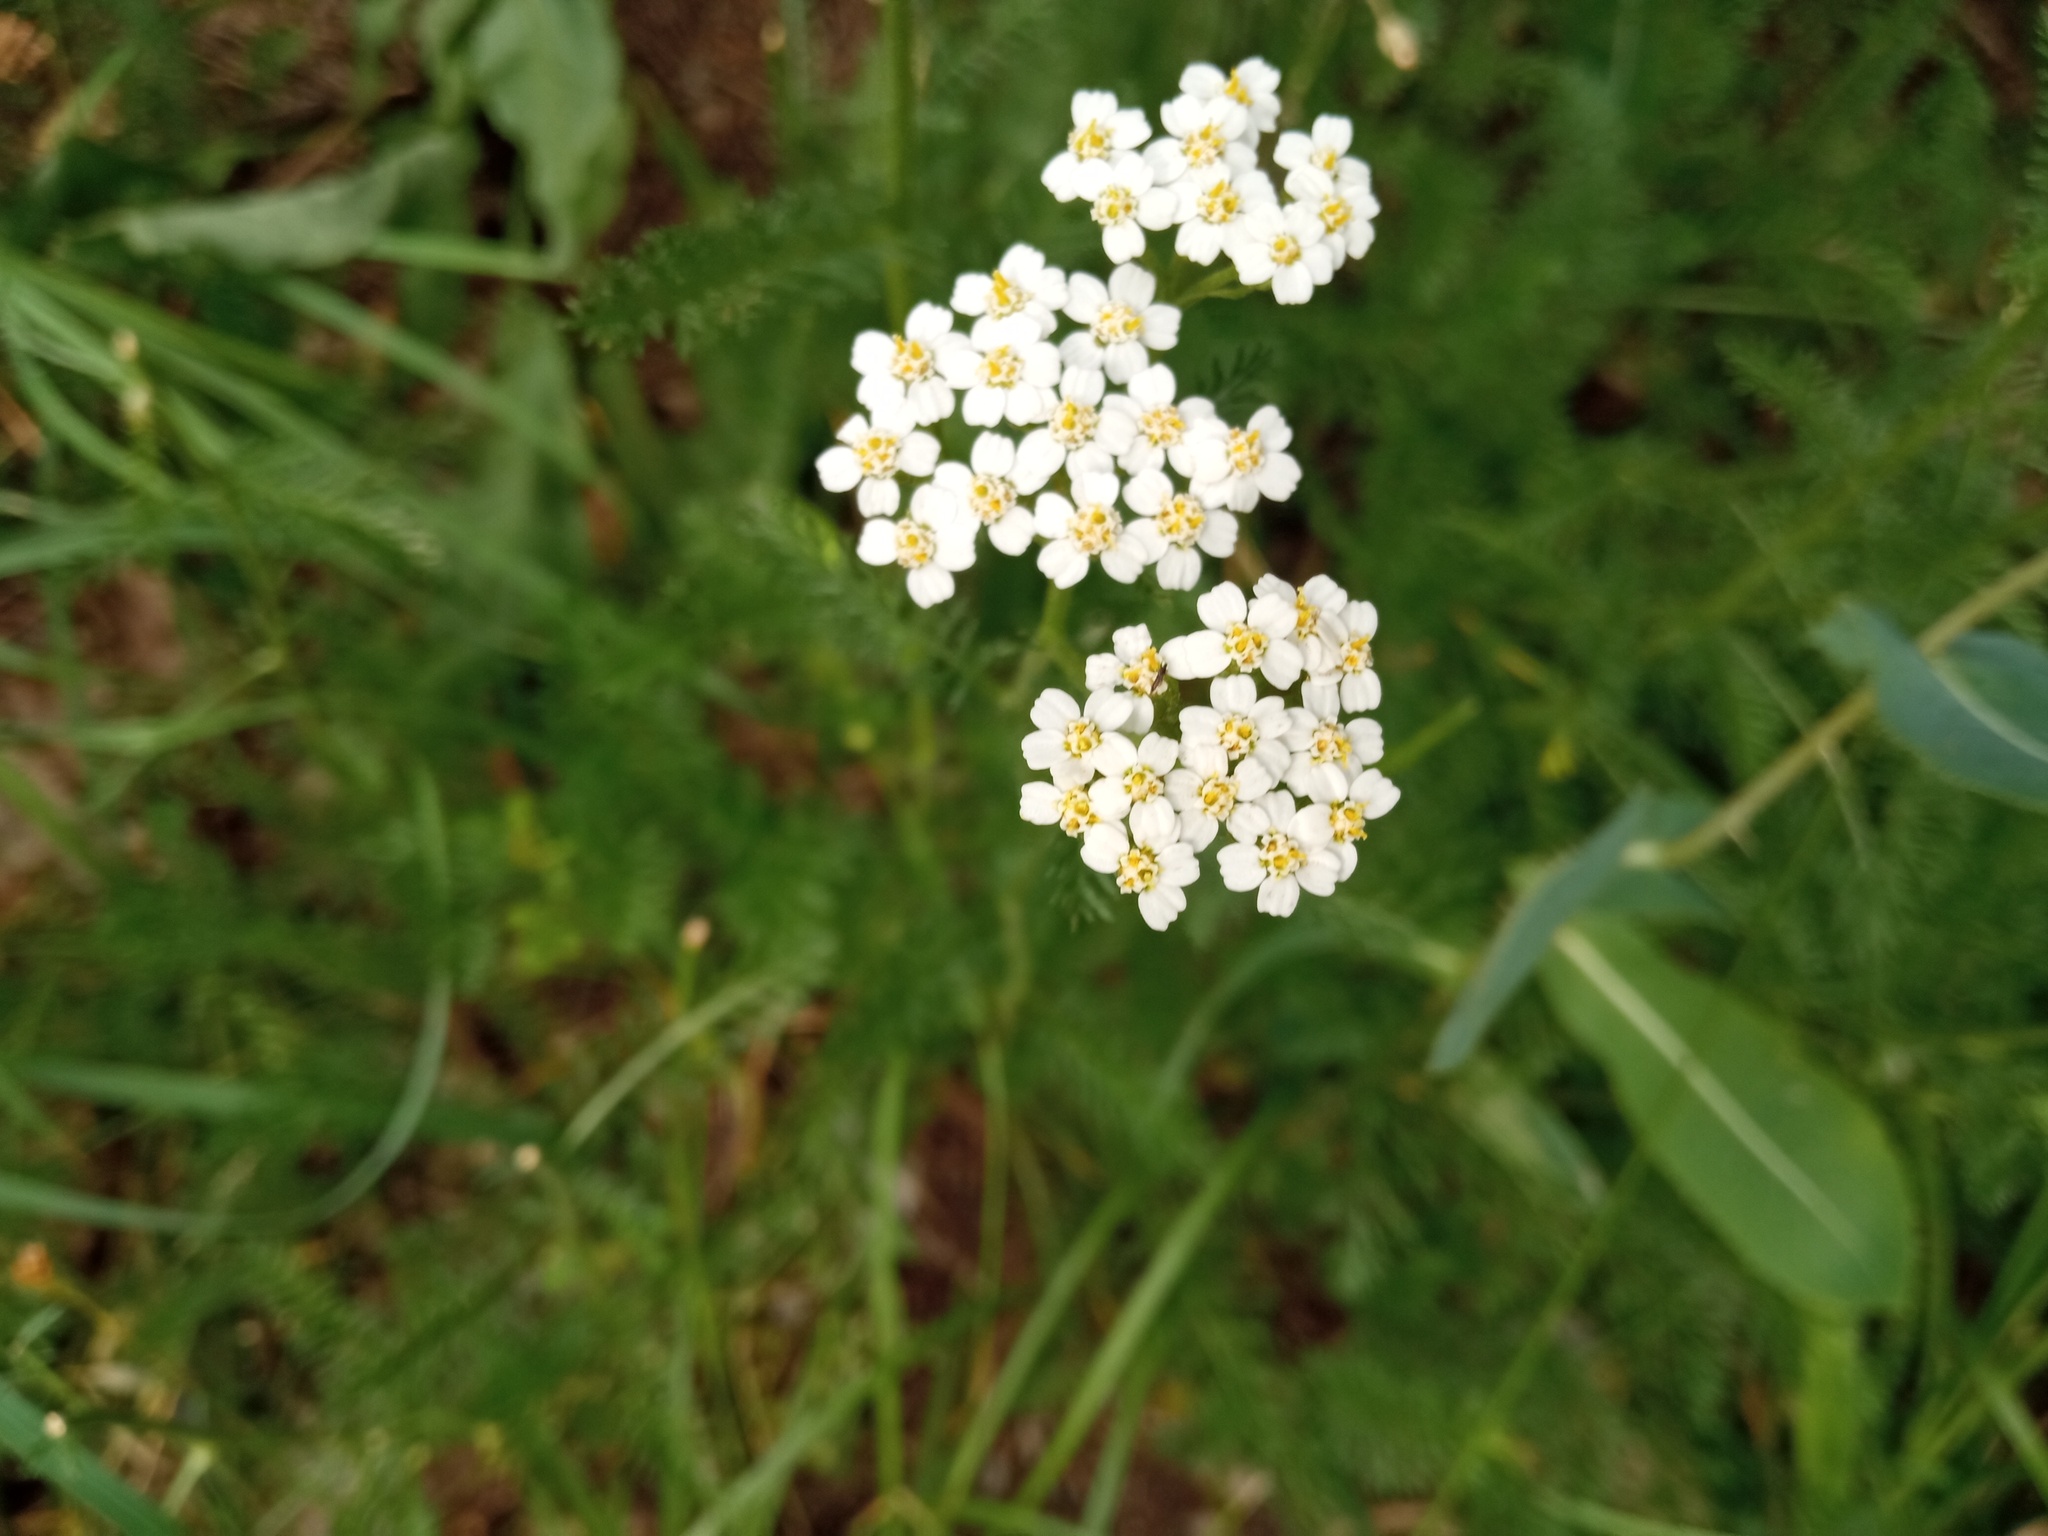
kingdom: Plantae
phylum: Tracheophyta
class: Magnoliopsida
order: Asterales
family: Asteraceae
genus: Achillea
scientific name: Achillea millefolium
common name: Yarrow
